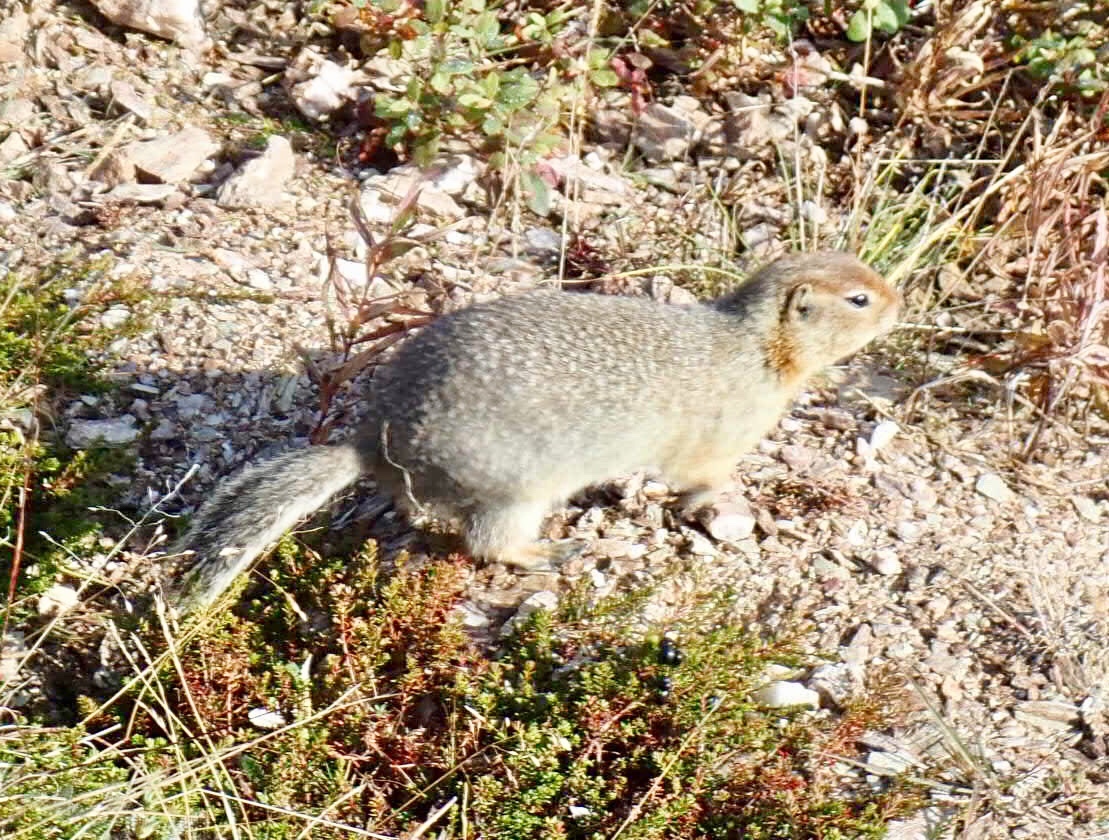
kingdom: Animalia
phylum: Chordata
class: Mammalia
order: Rodentia
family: Sciuridae
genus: Urocitellus
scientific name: Urocitellus parryii
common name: Arctic ground squirrel
